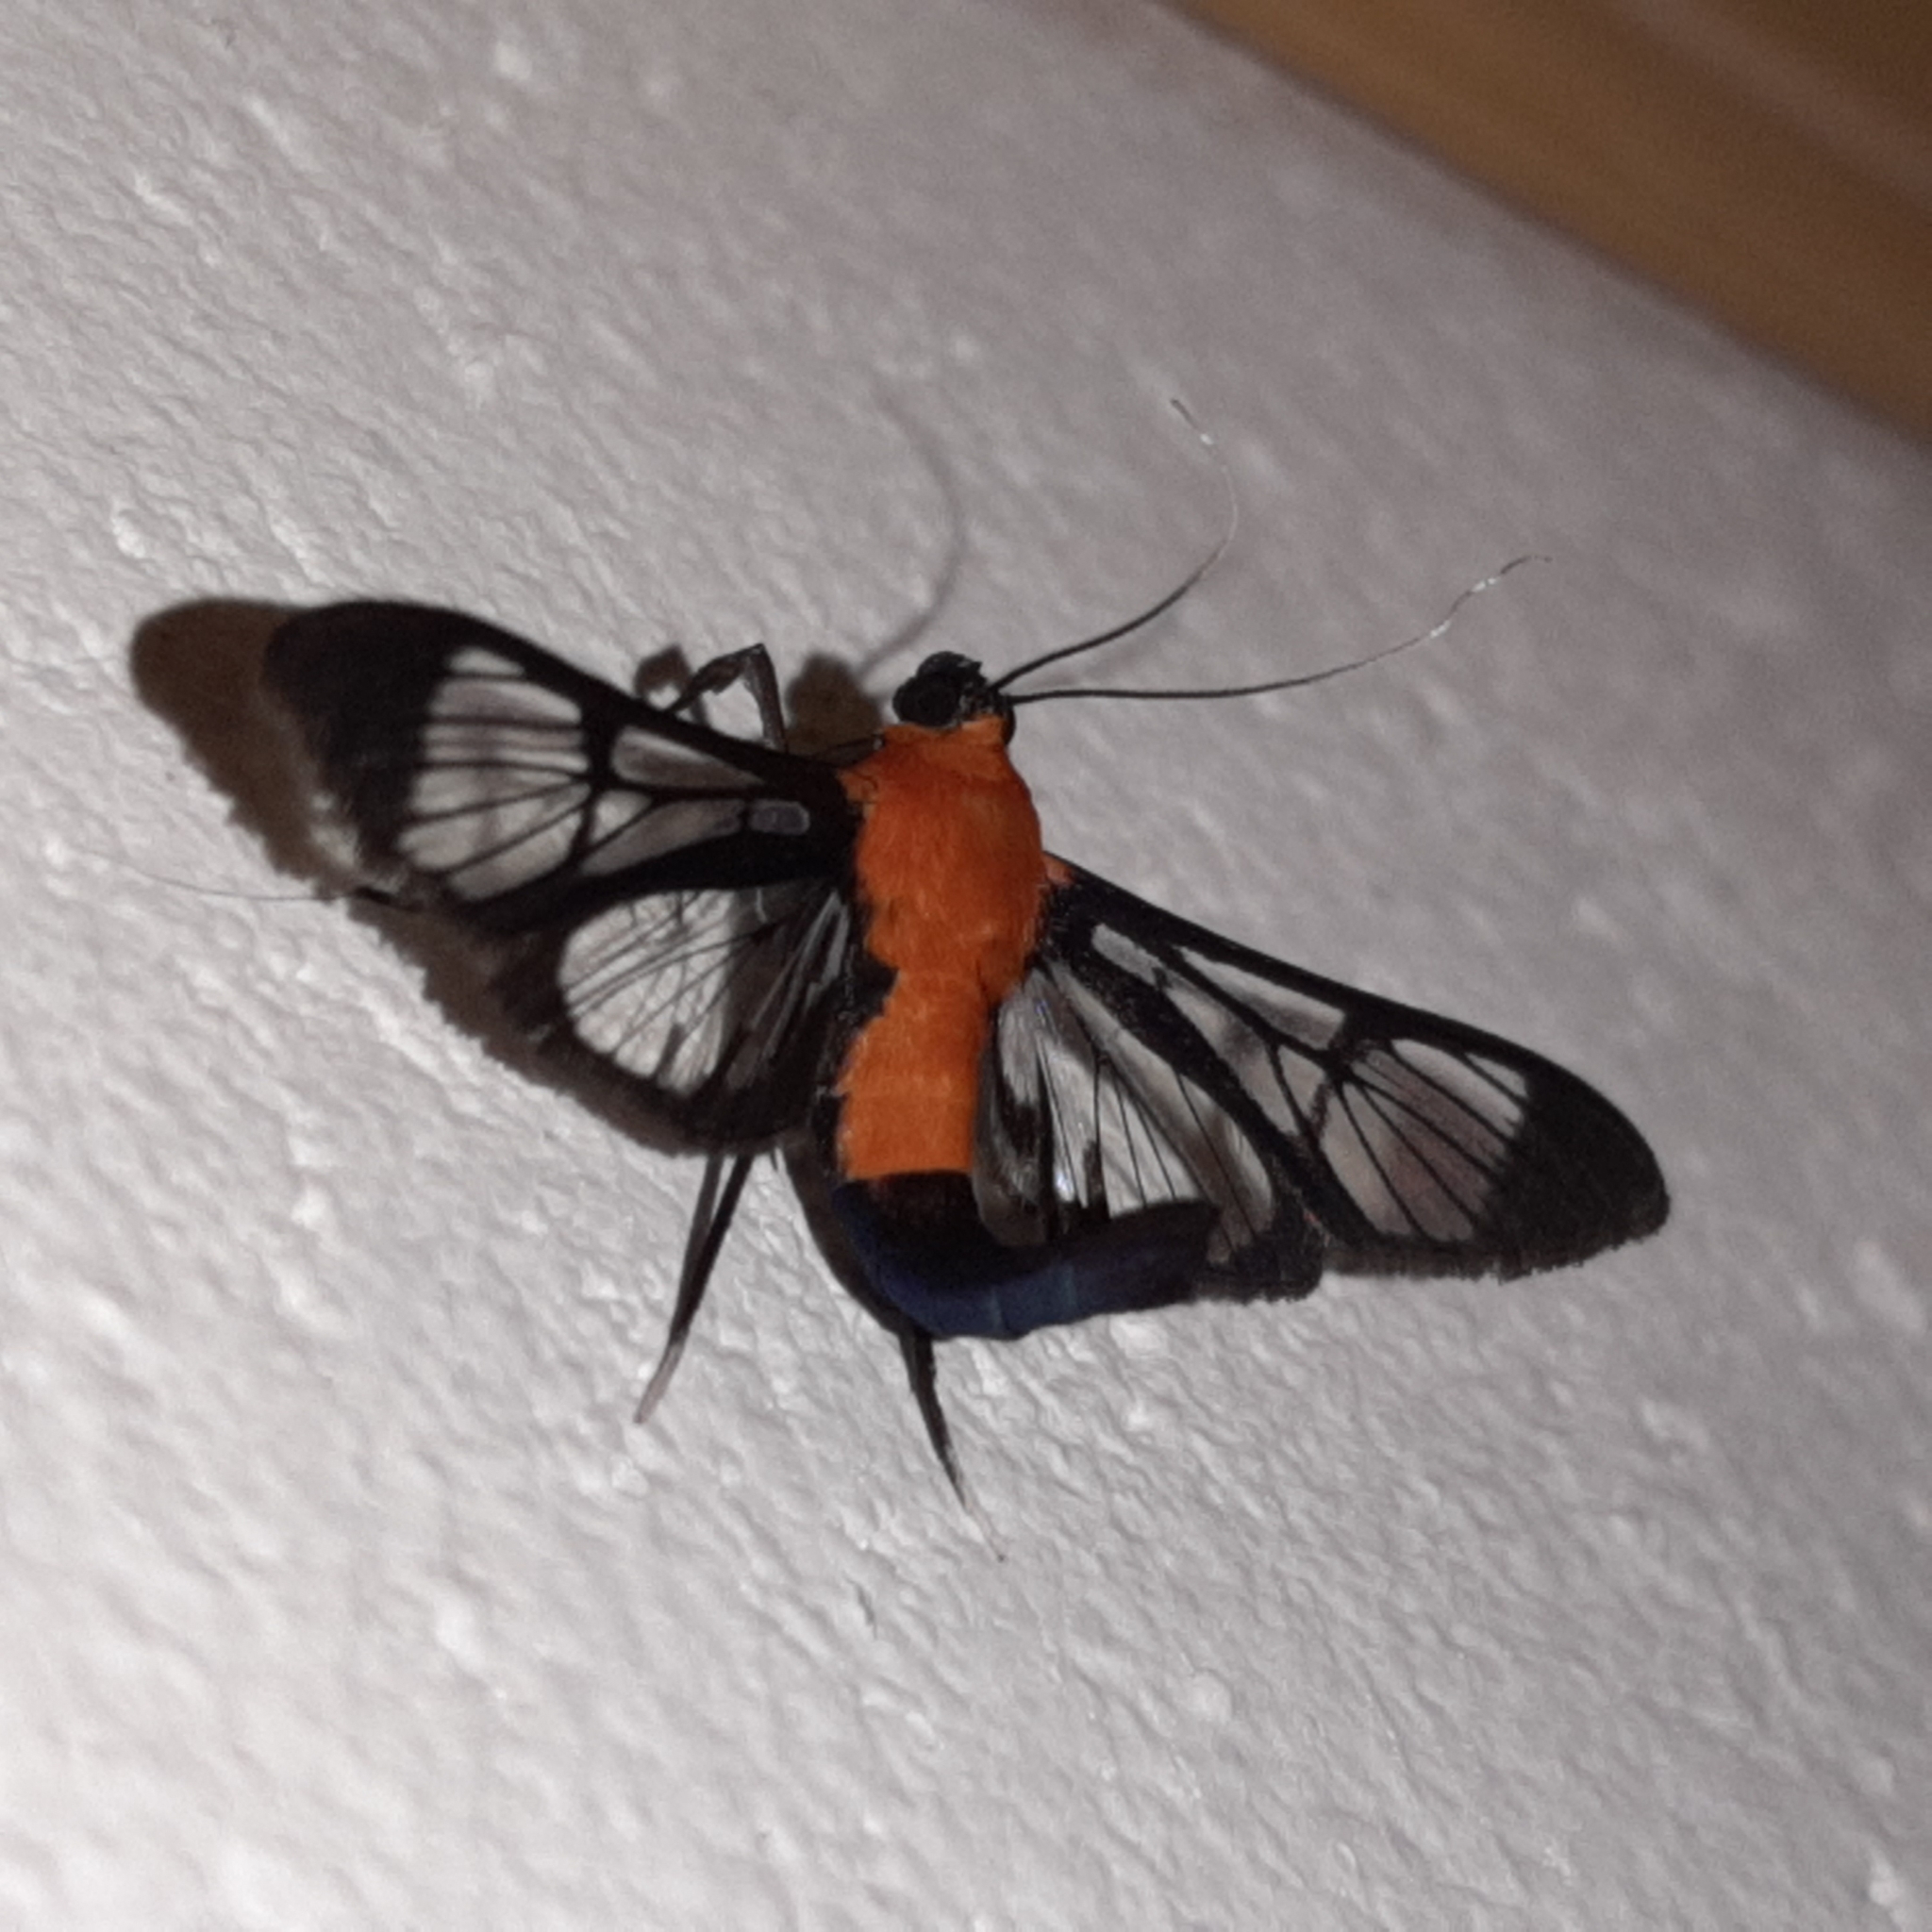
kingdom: Animalia
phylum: Arthropoda
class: Insecta
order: Lepidoptera
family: Crambidae
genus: Trichaea
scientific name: Trichaea pilicornis
